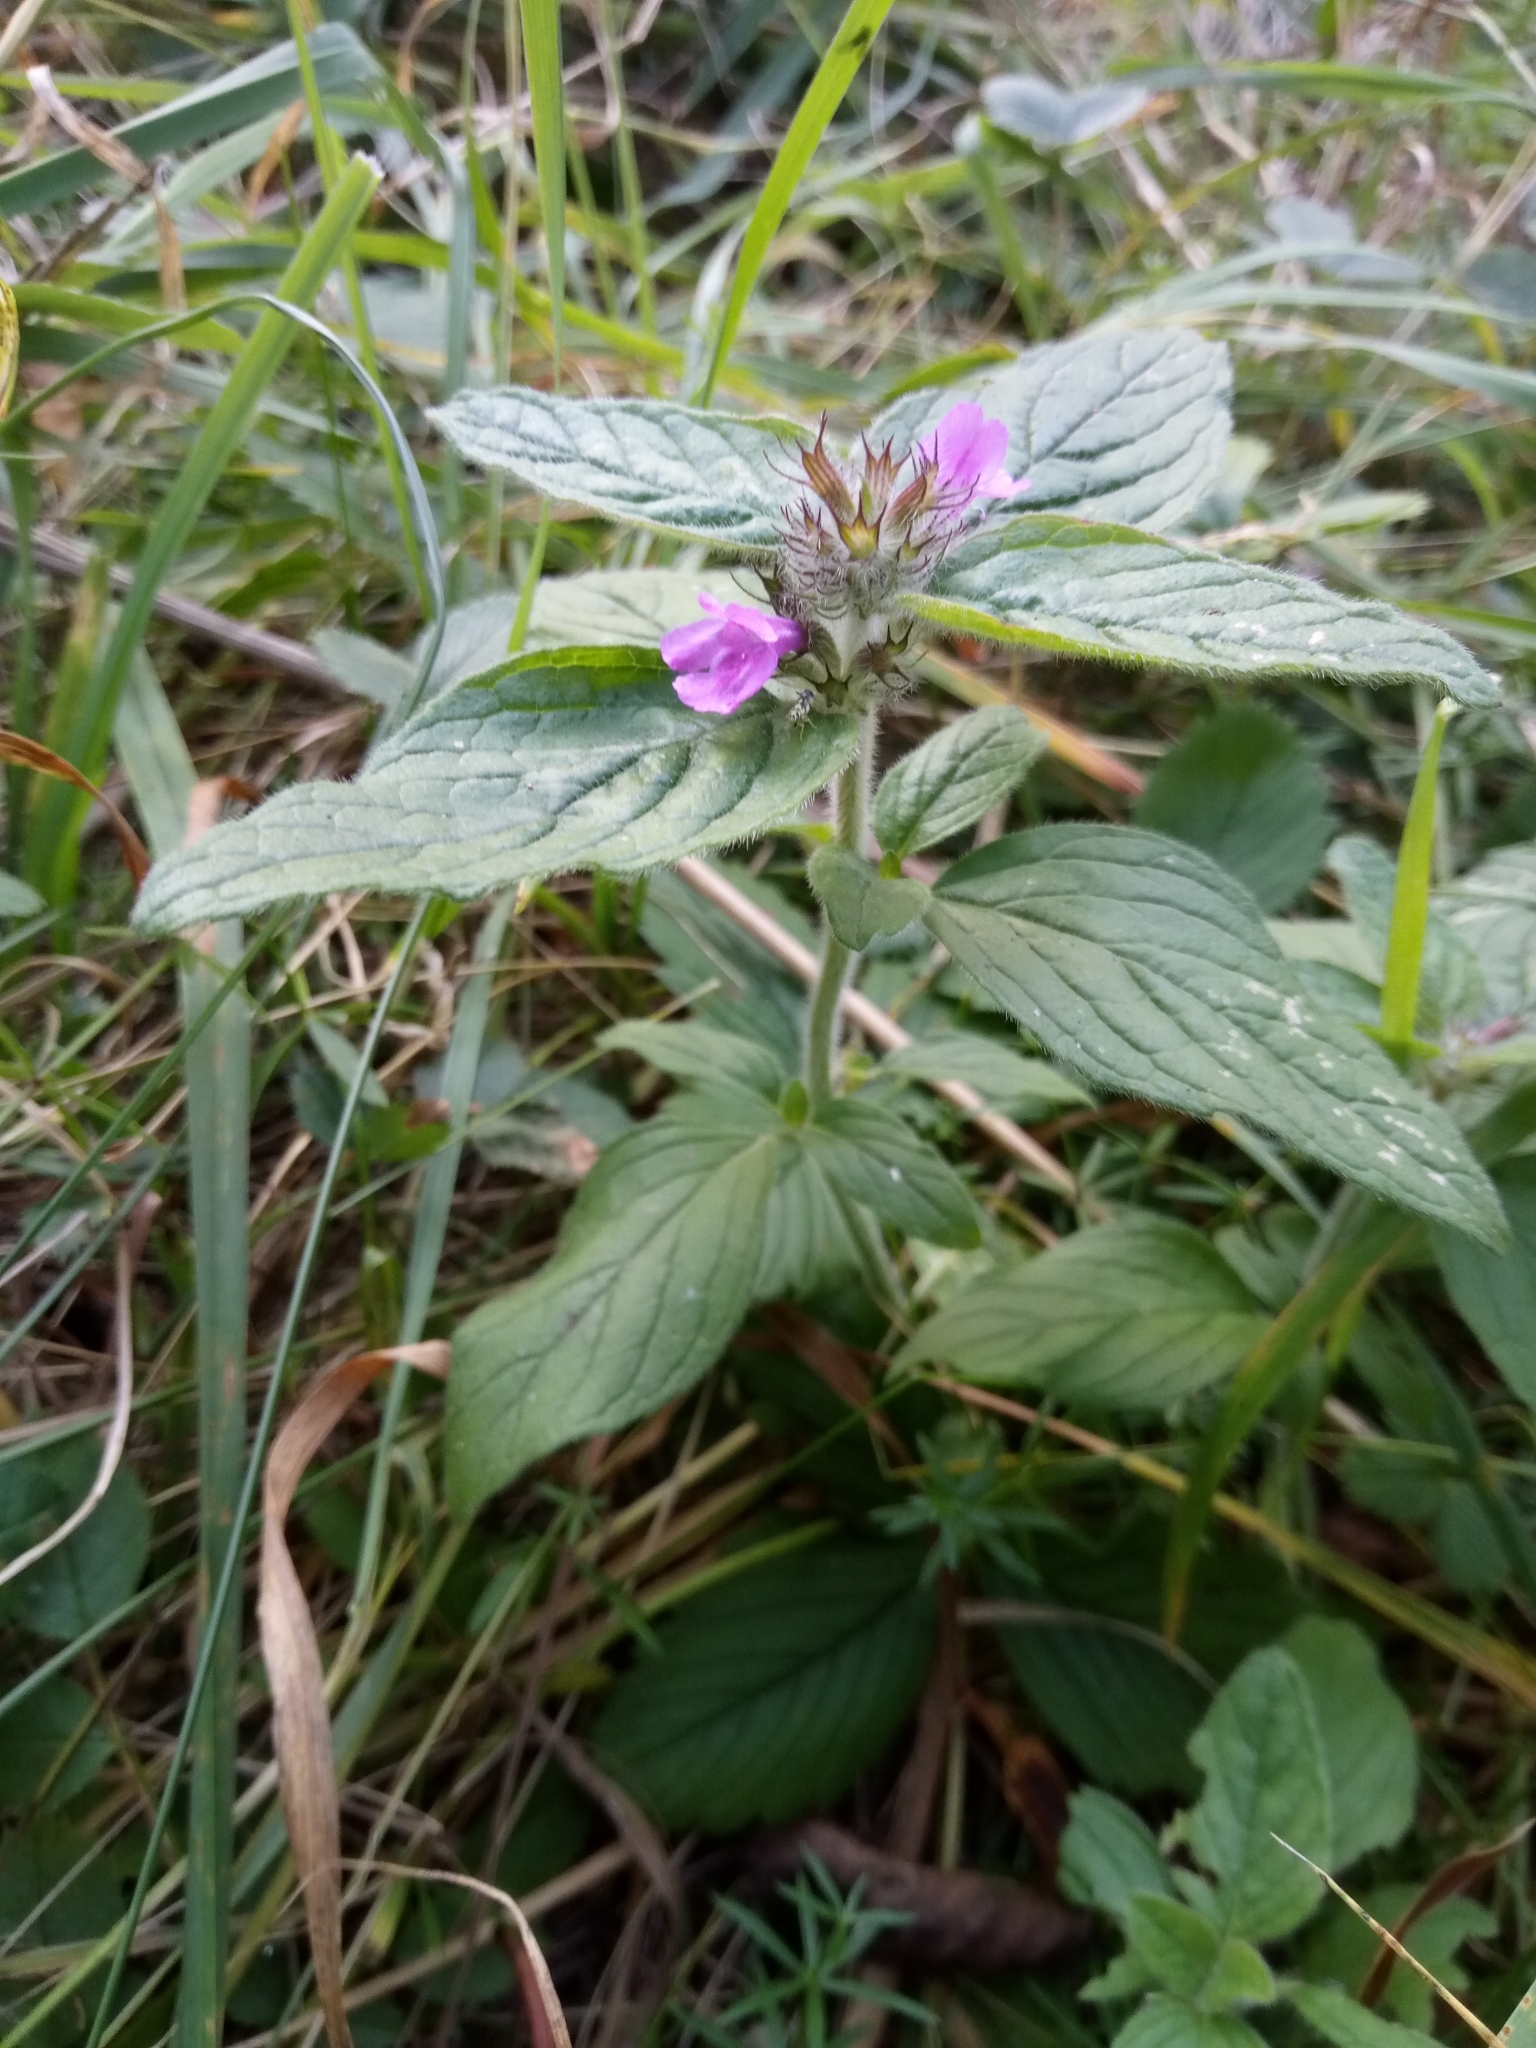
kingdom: Plantae
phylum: Tracheophyta
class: Magnoliopsida
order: Lamiales
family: Lamiaceae
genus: Clinopodium
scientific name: Clinopodium vulgare
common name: Wild basil
